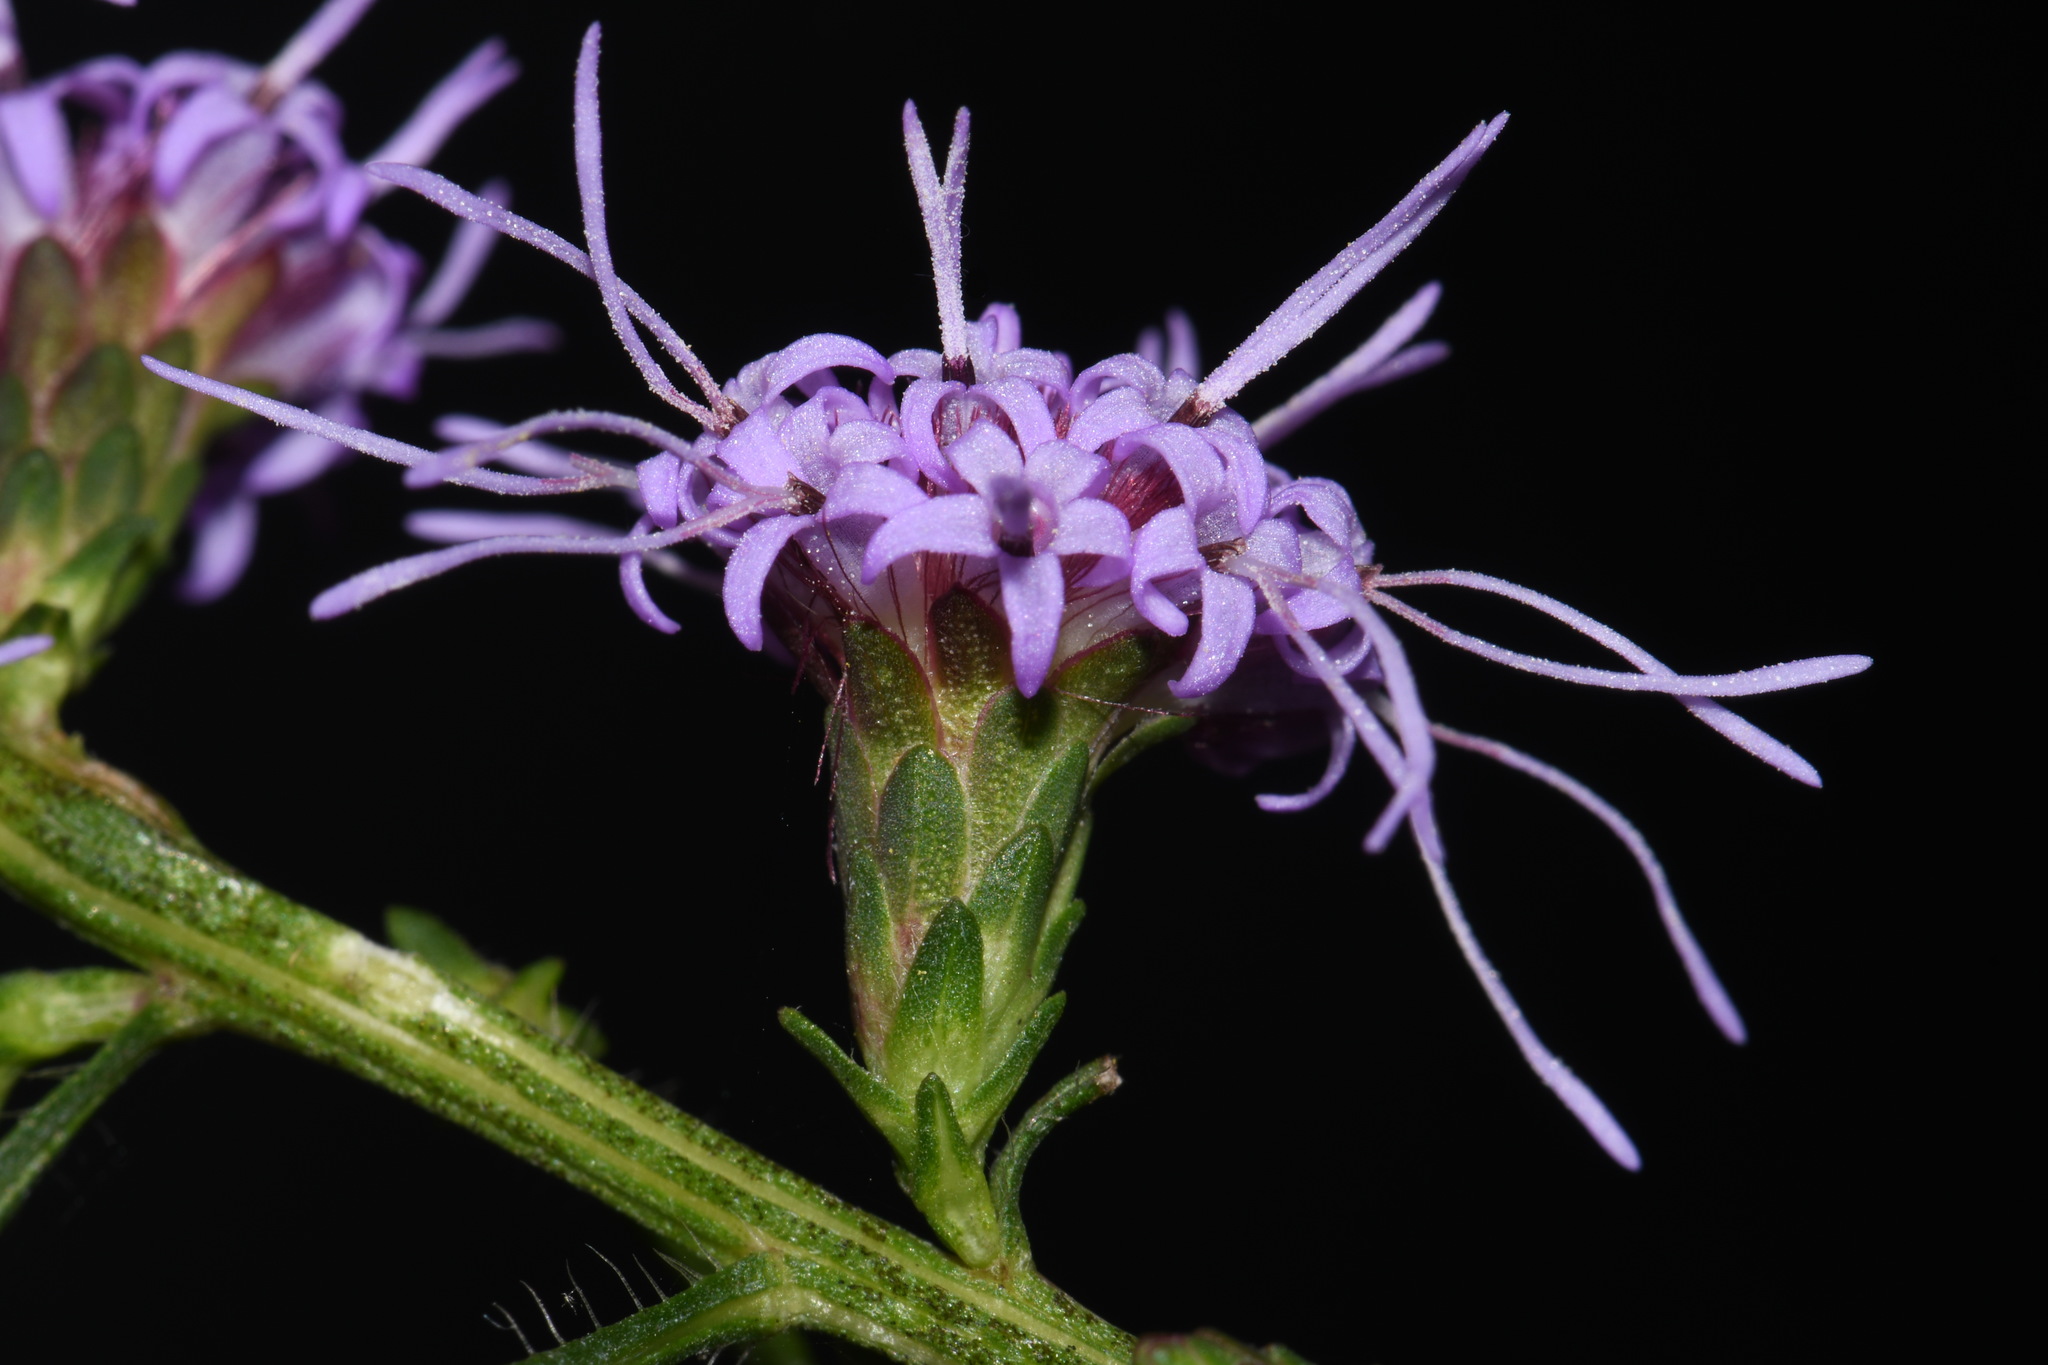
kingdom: Plantae
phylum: Tracheophyta
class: Magnoliopsida
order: Asterales
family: Asteraceae
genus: Liatris
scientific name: Liatris elegantula
